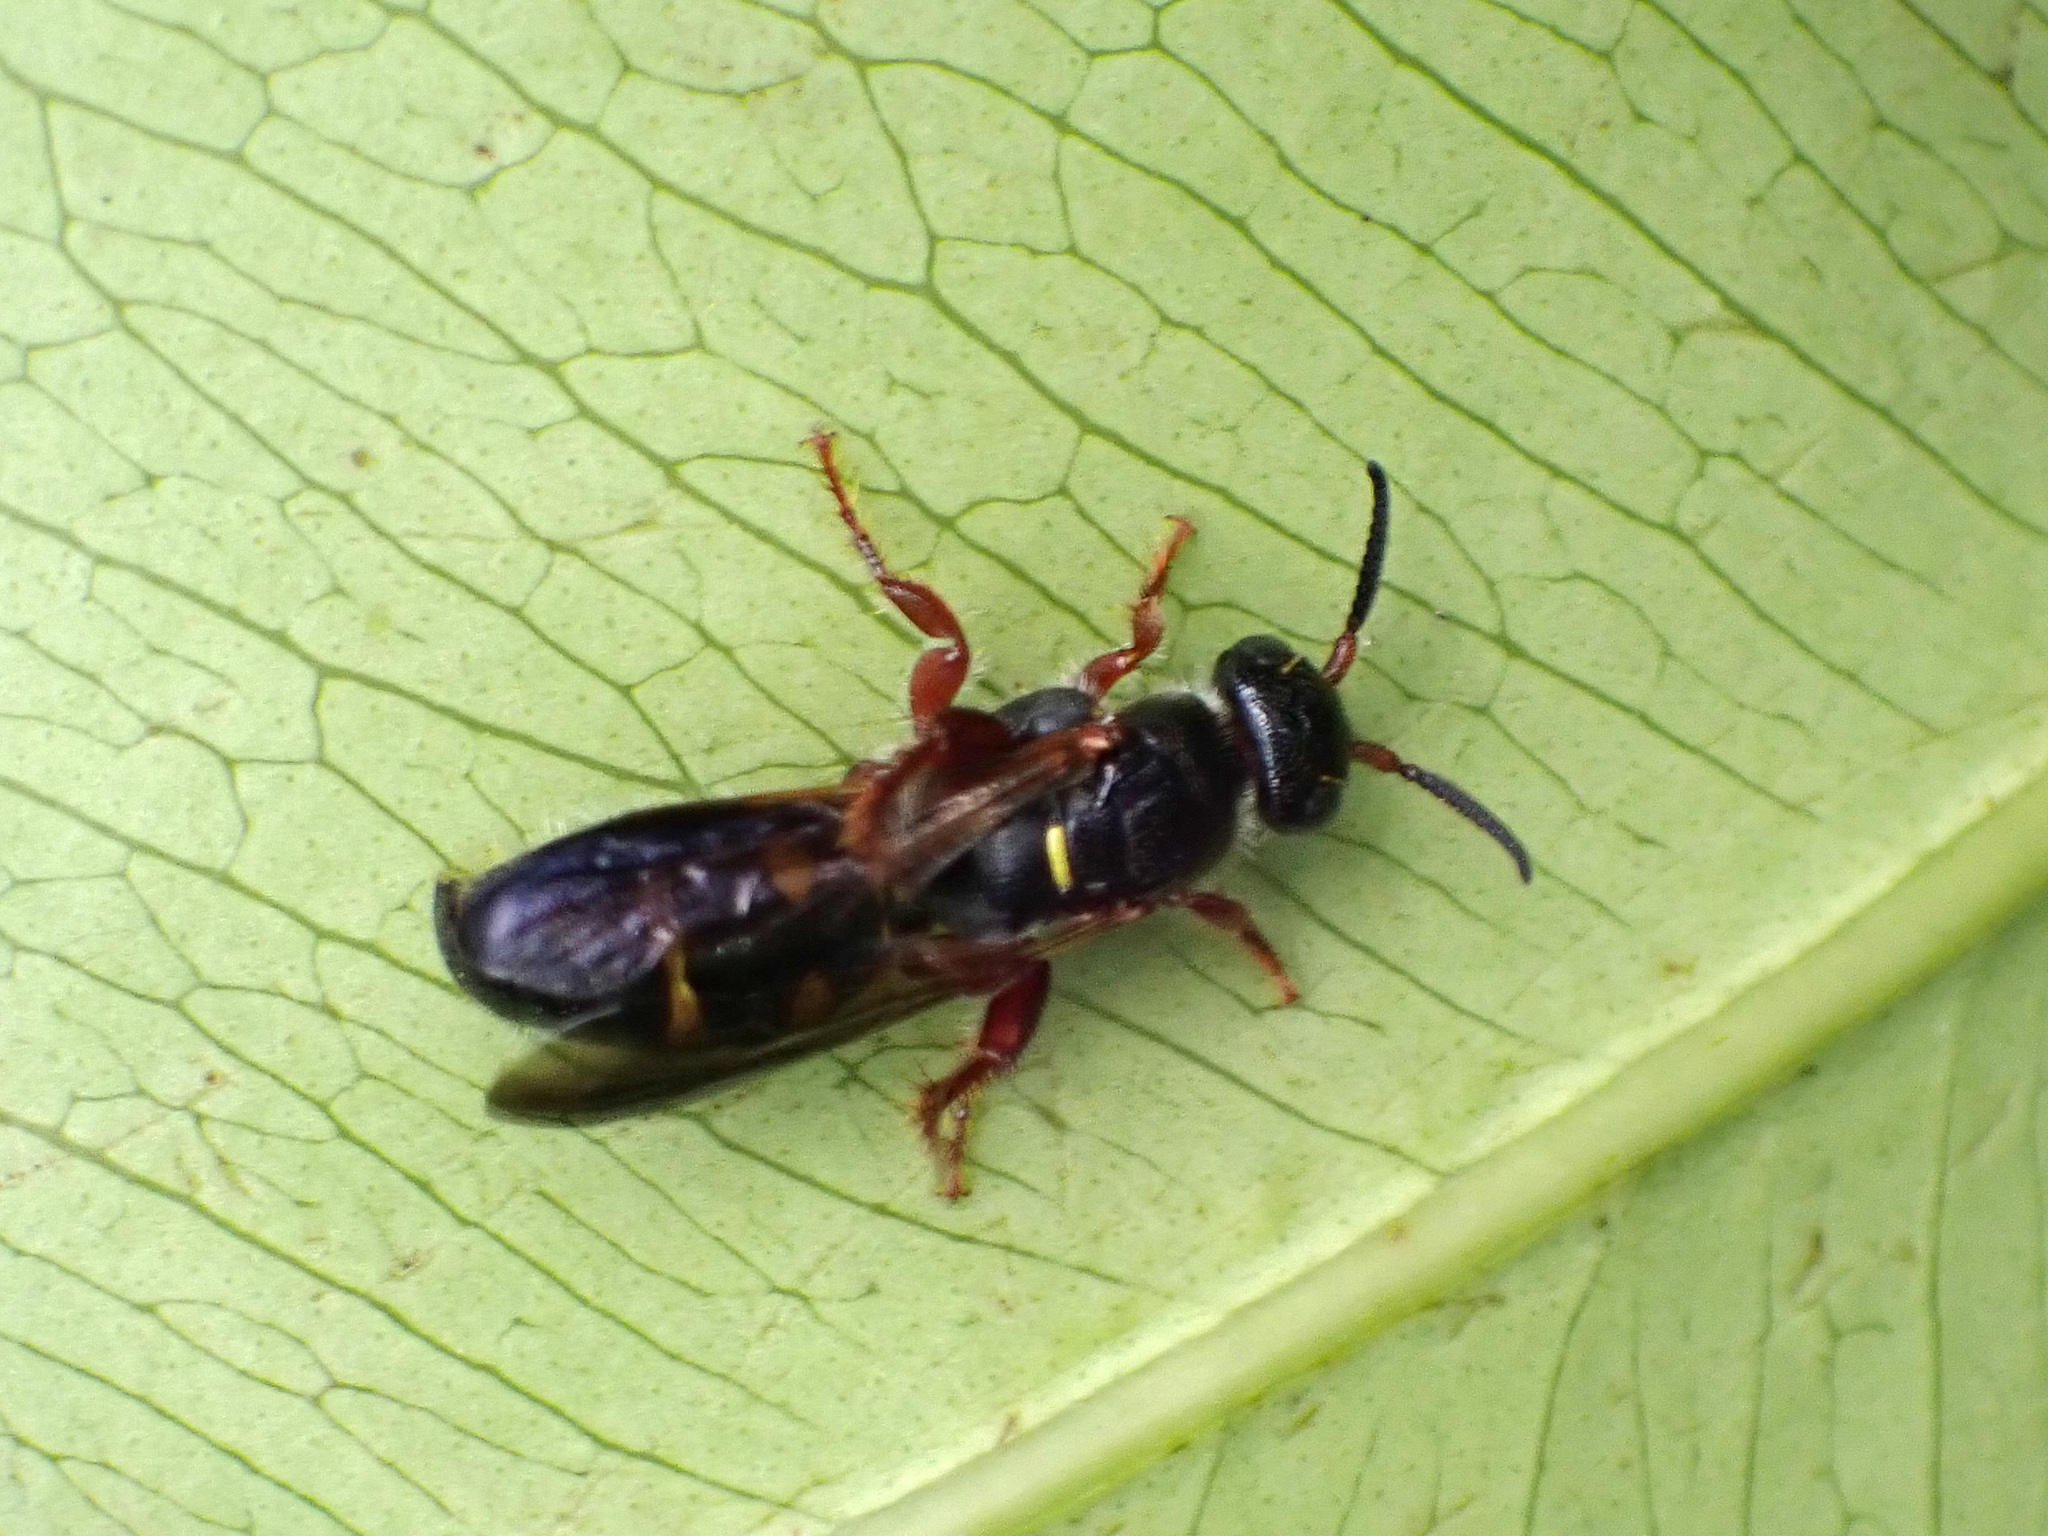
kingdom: Animalia
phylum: Arthropoda
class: Insecta
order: Hymenoptera
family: Tiphiidae
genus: Myzinum
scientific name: Myzinum dubiosum
